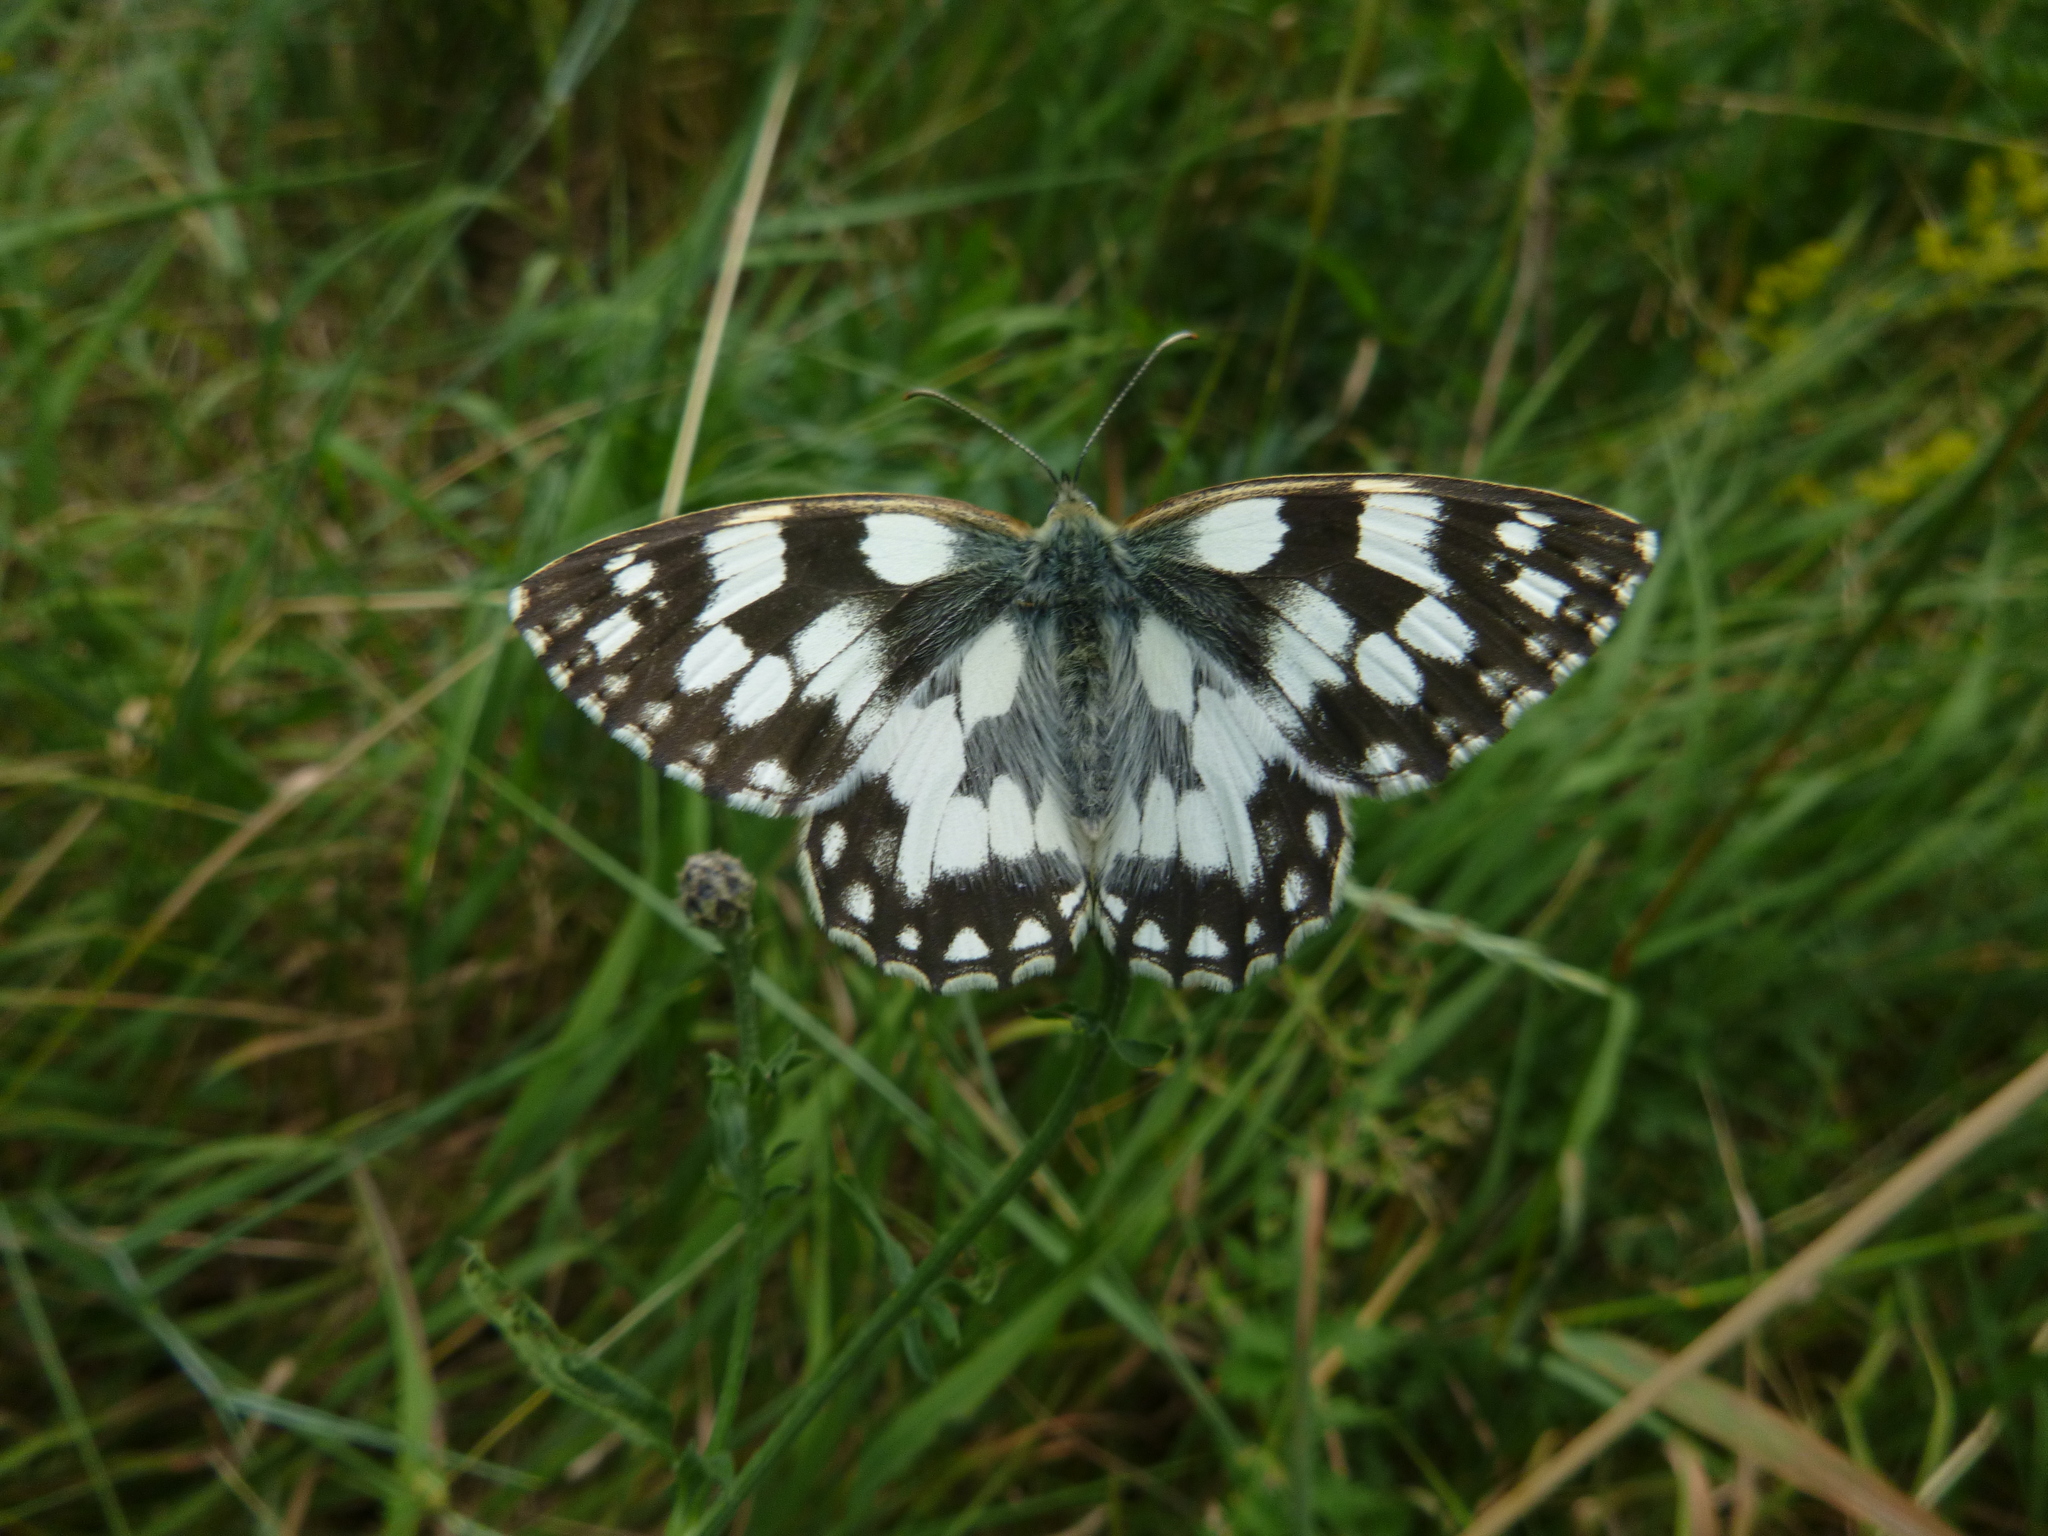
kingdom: Animalia
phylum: Arthropoda
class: Insecta
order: Lepidoptera
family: Nymphalidae
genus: Melanargia
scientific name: Melanargia galathea
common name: Marbled white
